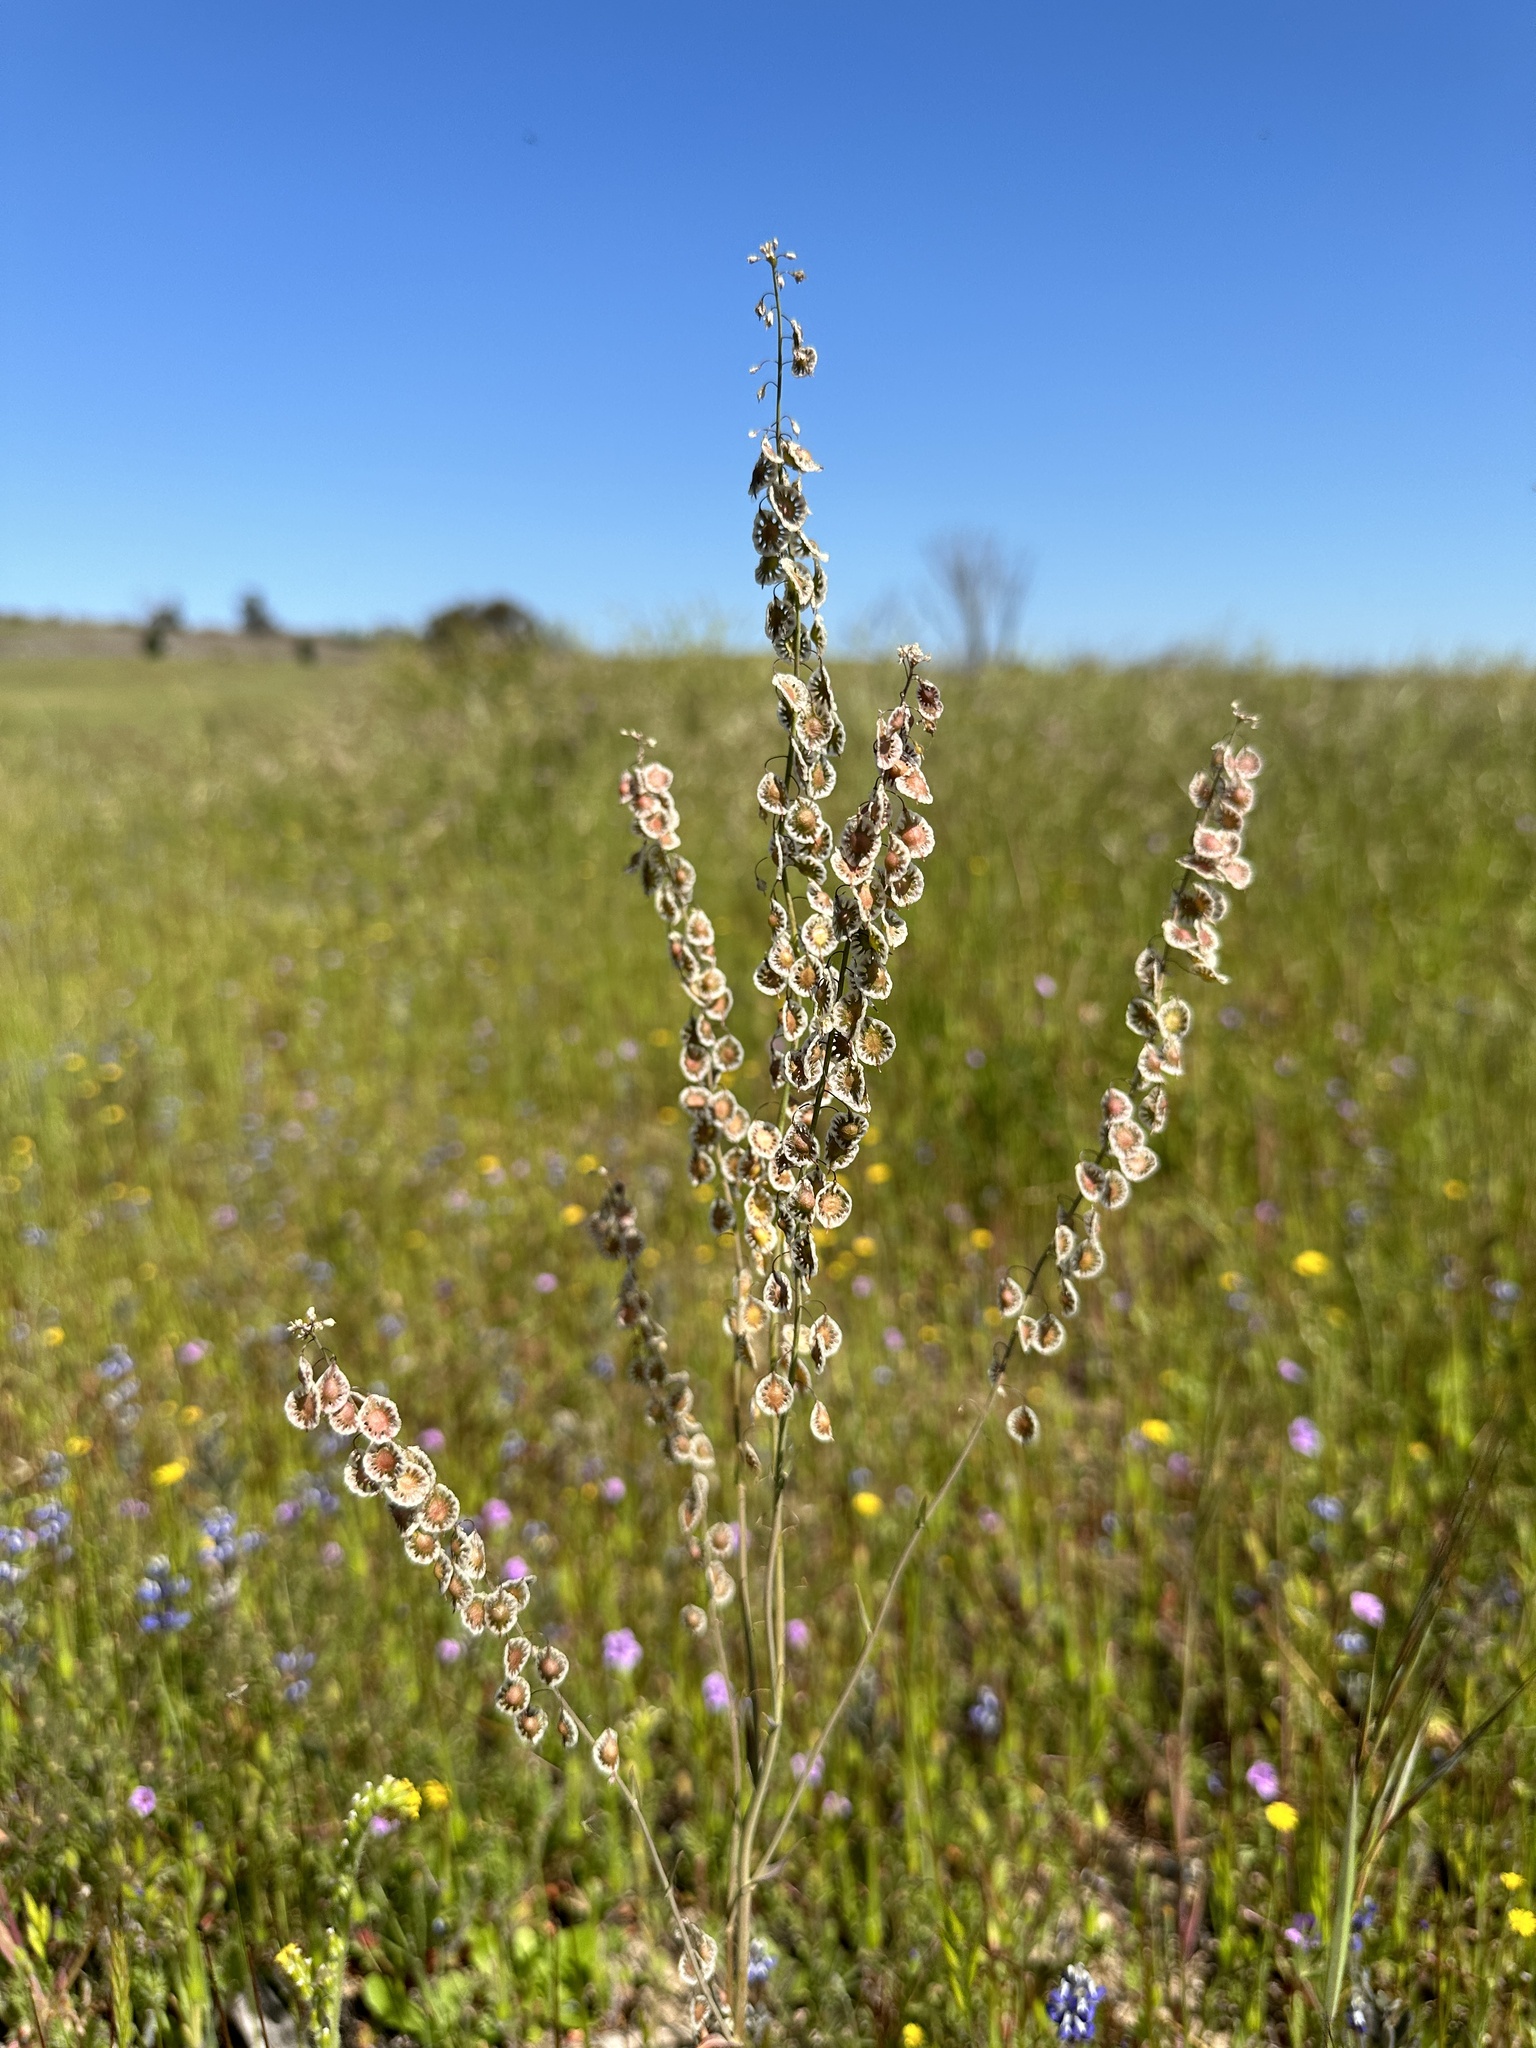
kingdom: Plantae
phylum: Tracheophyta
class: Magnoliopsida
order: Brassicales
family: Brassicaceae
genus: Thysanocarpus
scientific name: Thysanocarpus curvipes
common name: Sand fringepod
